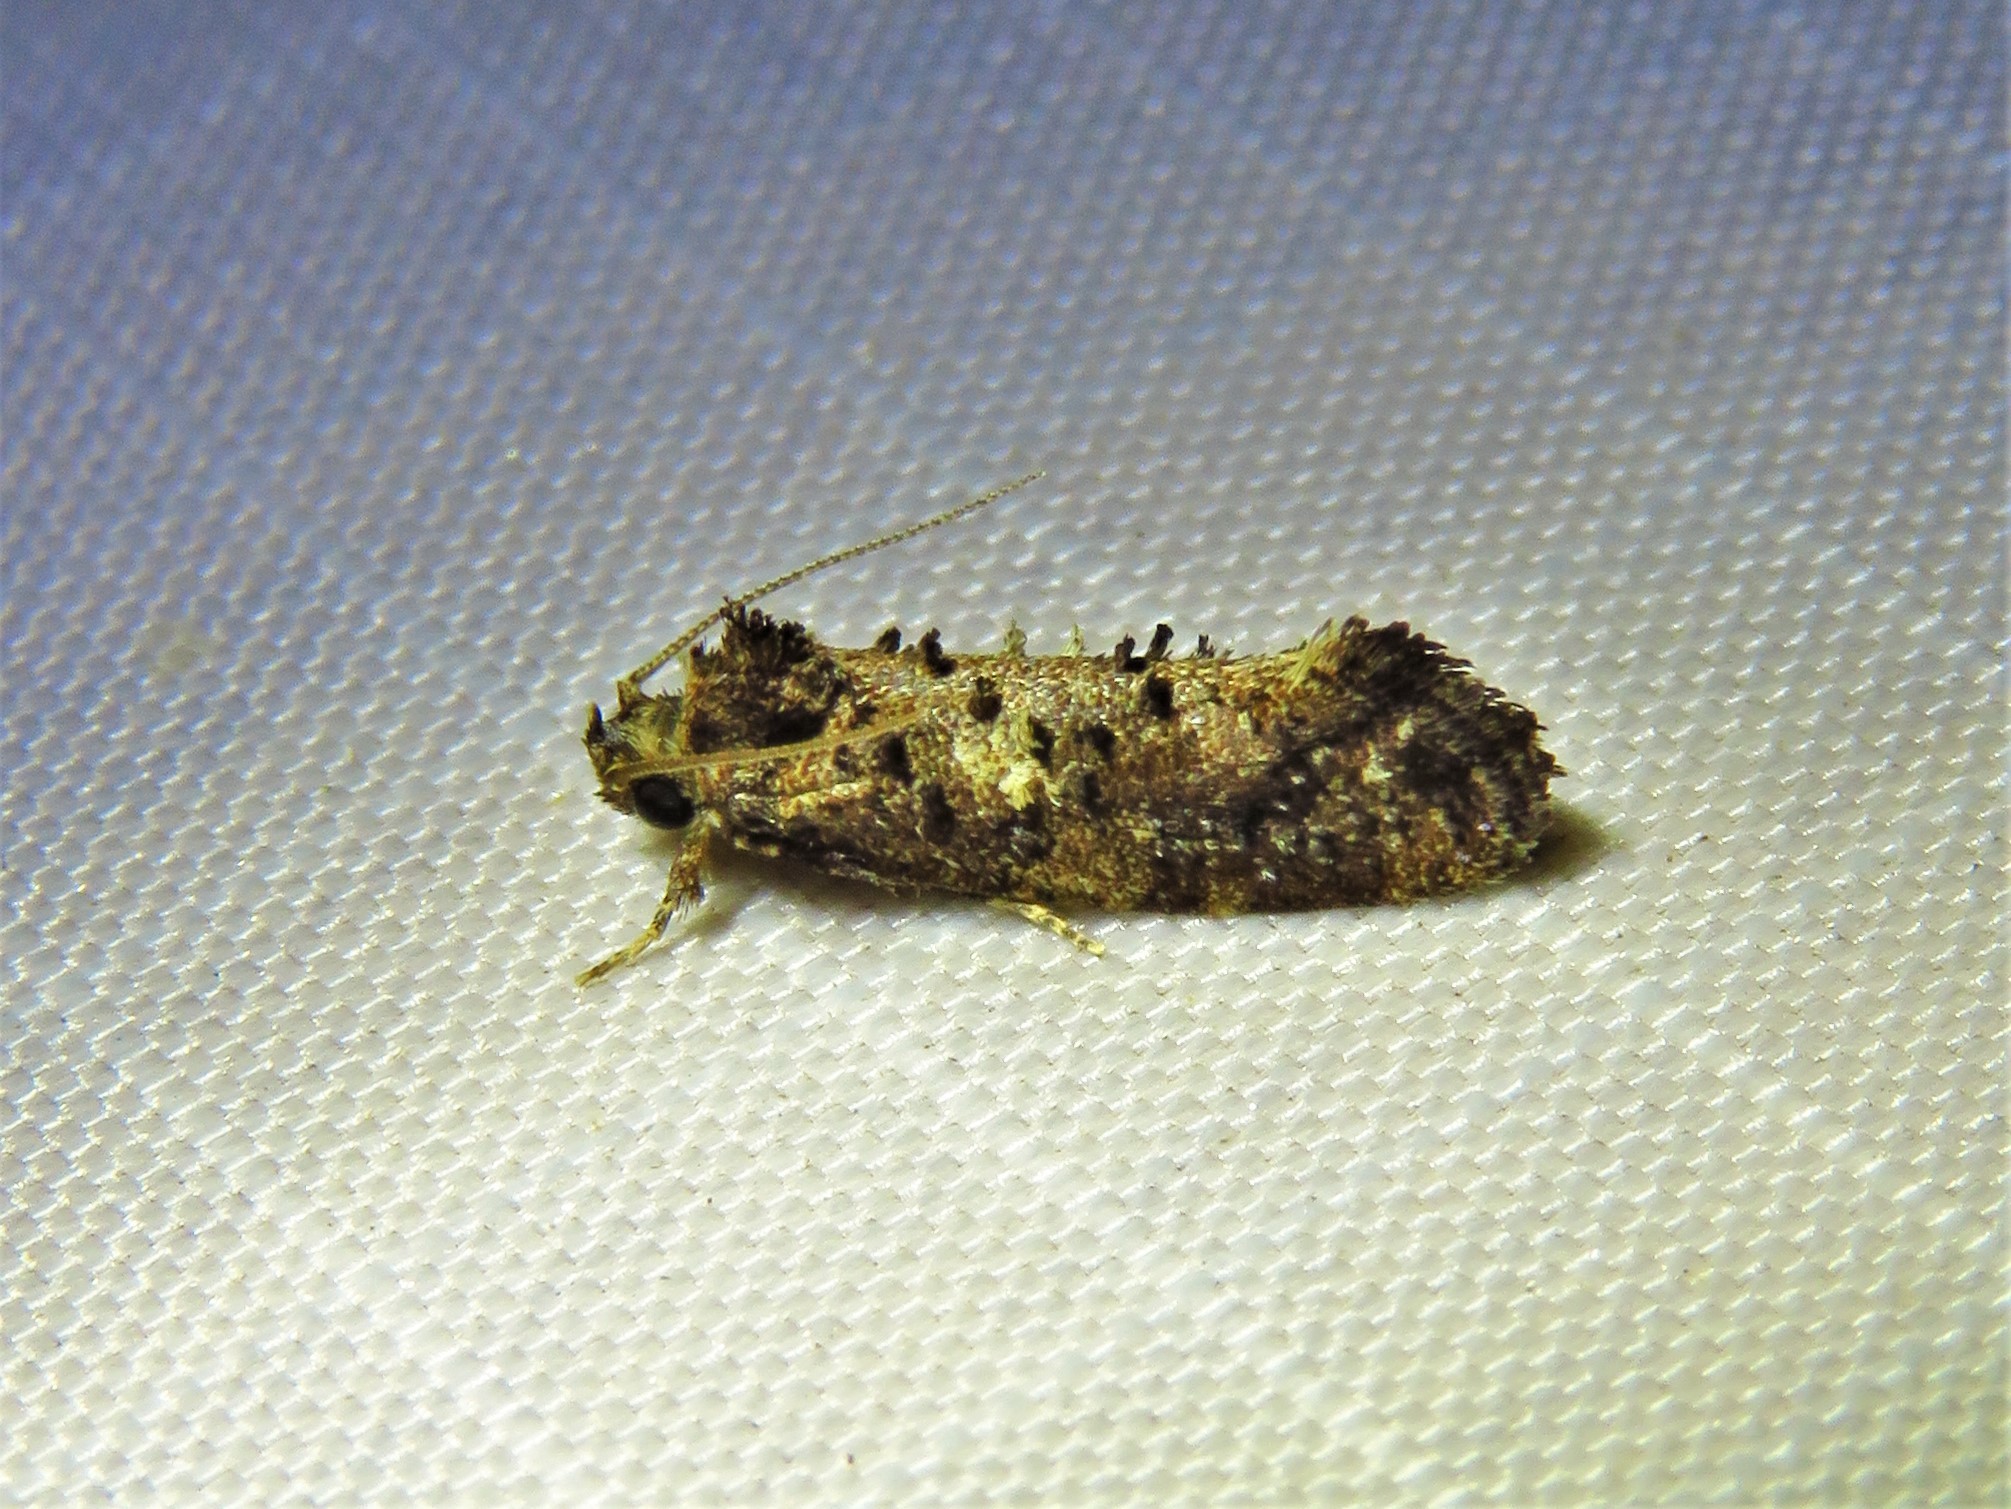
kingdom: Animalia
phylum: Arthropoda
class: Insecta
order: Lepidoptera
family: Tineidae
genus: Acrolophus
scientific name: Acrolophus cressoni
